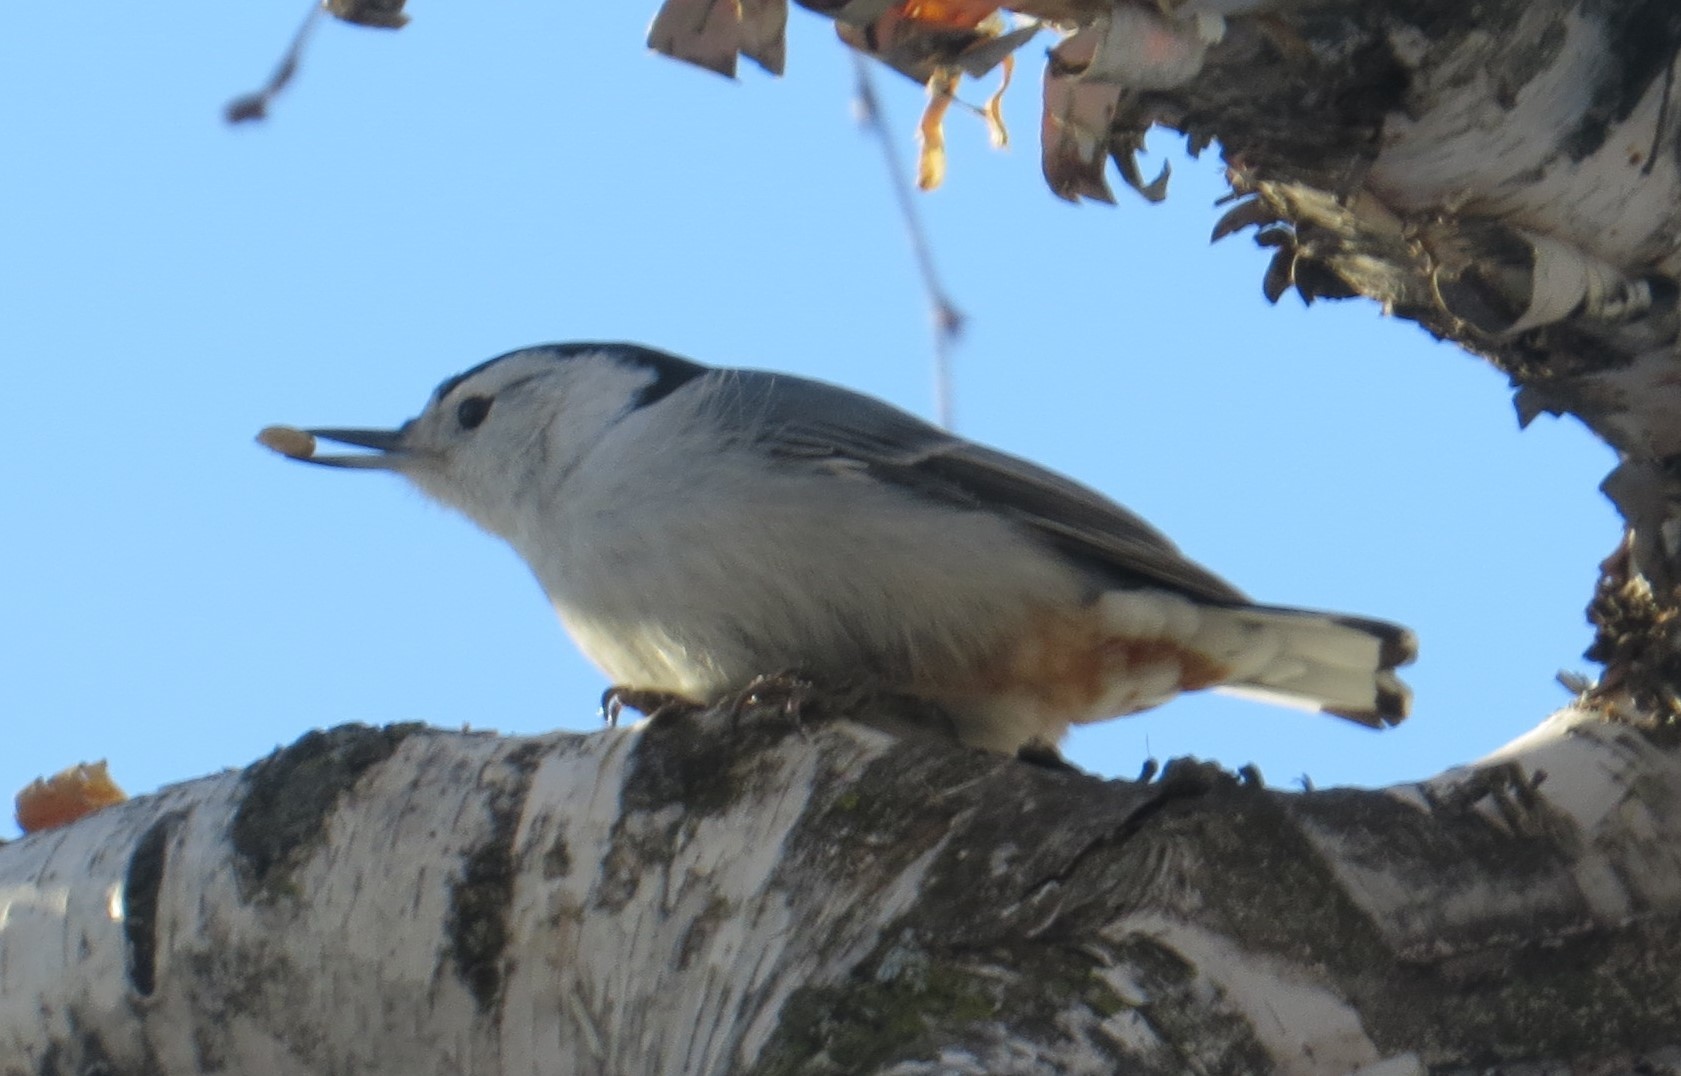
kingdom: Animalia
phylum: Chordata
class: Aves
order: Passeriformes
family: Sittidae
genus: Sitta
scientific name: Sitta carolinensis
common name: White-breasted nuthatch
